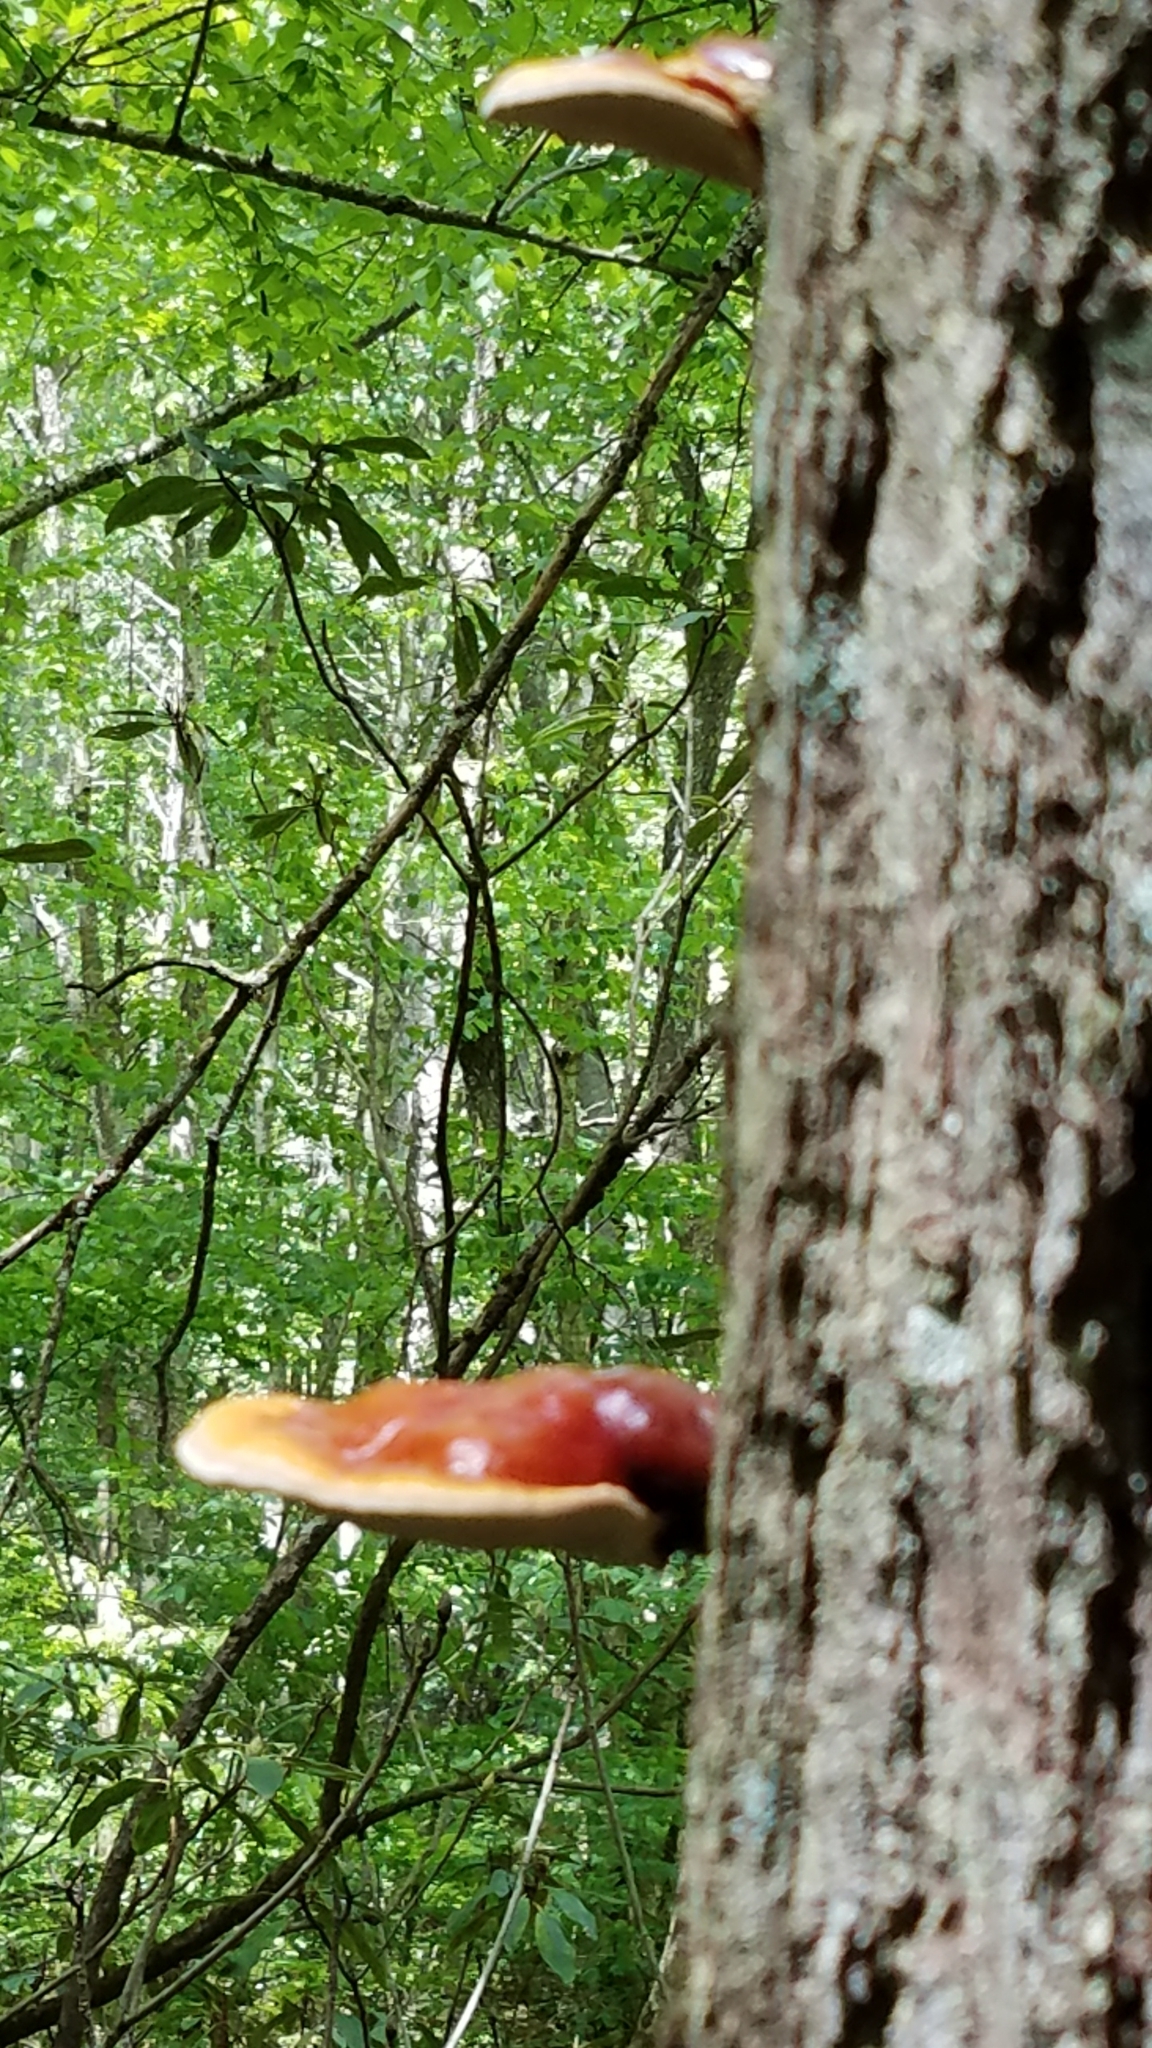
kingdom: Fungi
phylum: Basidiomycota
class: Agaricomycetes
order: Polyporales
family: Polyporaceae
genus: Ganoderma
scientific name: Ganoderma tsugae
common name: Hemlock varnish shelf
